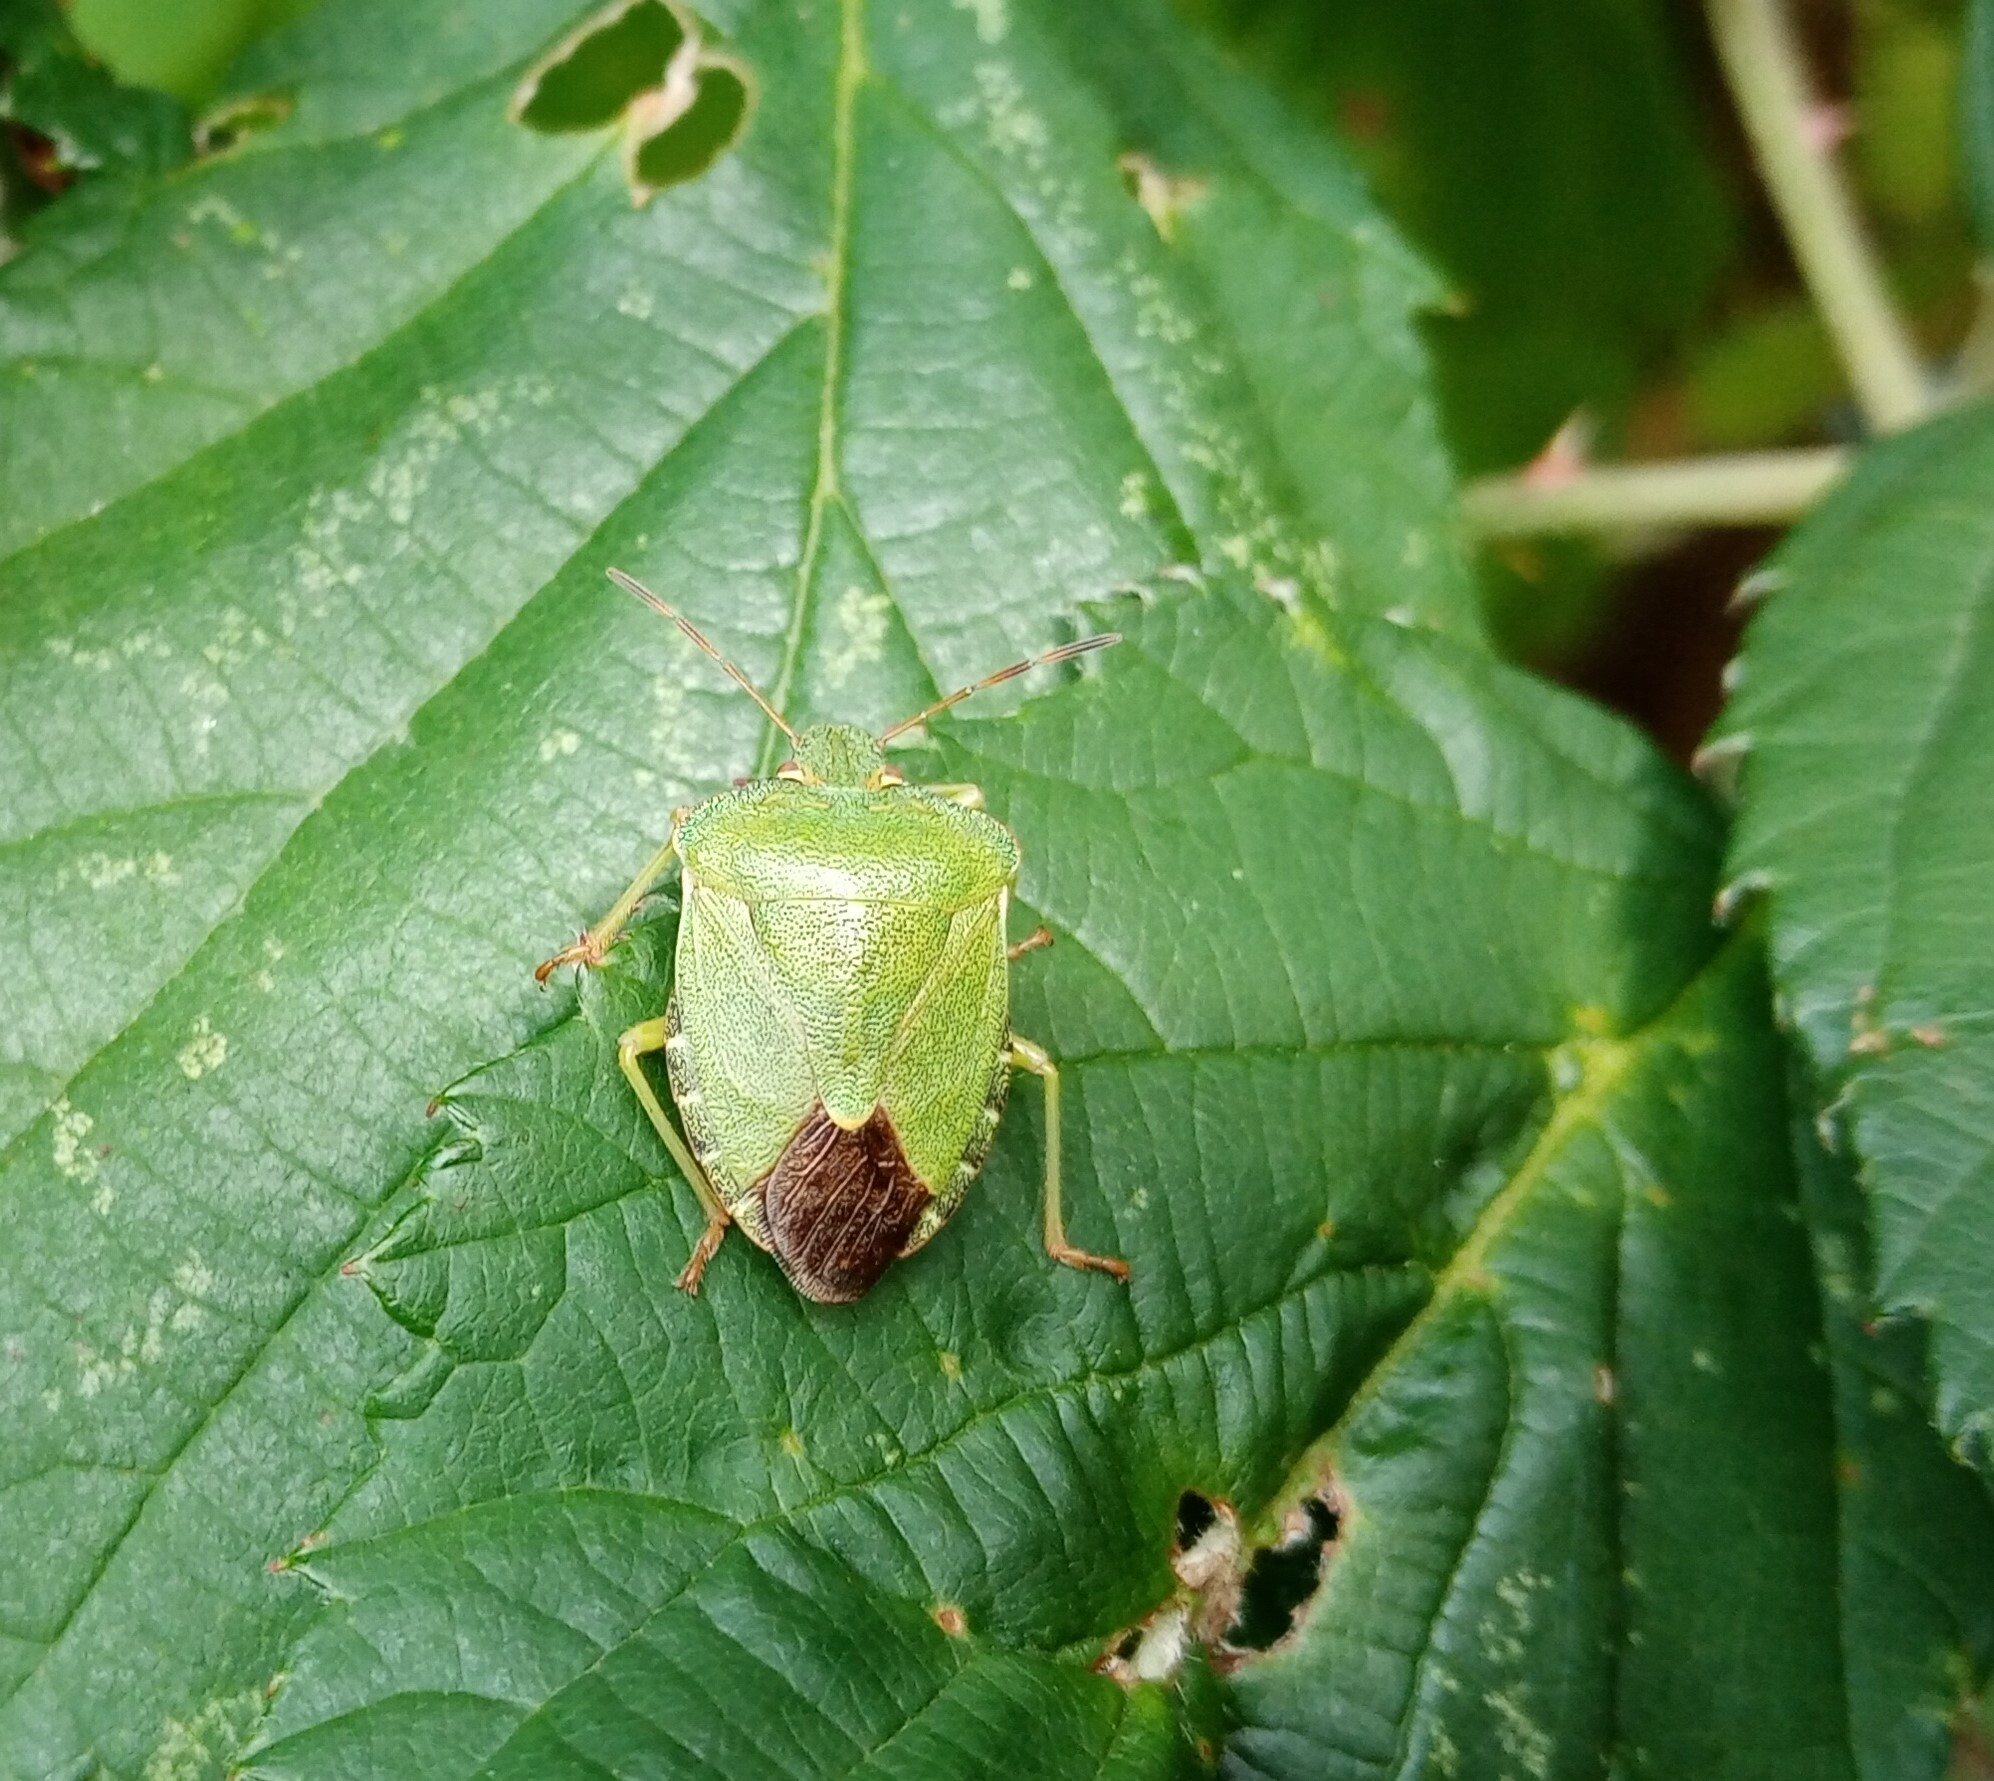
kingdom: Animalia
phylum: Arthropoda
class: Insecta
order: Hemiptera
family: Pentatomidae
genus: Palomena
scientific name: Palomena prasina
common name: Green shieldbug
